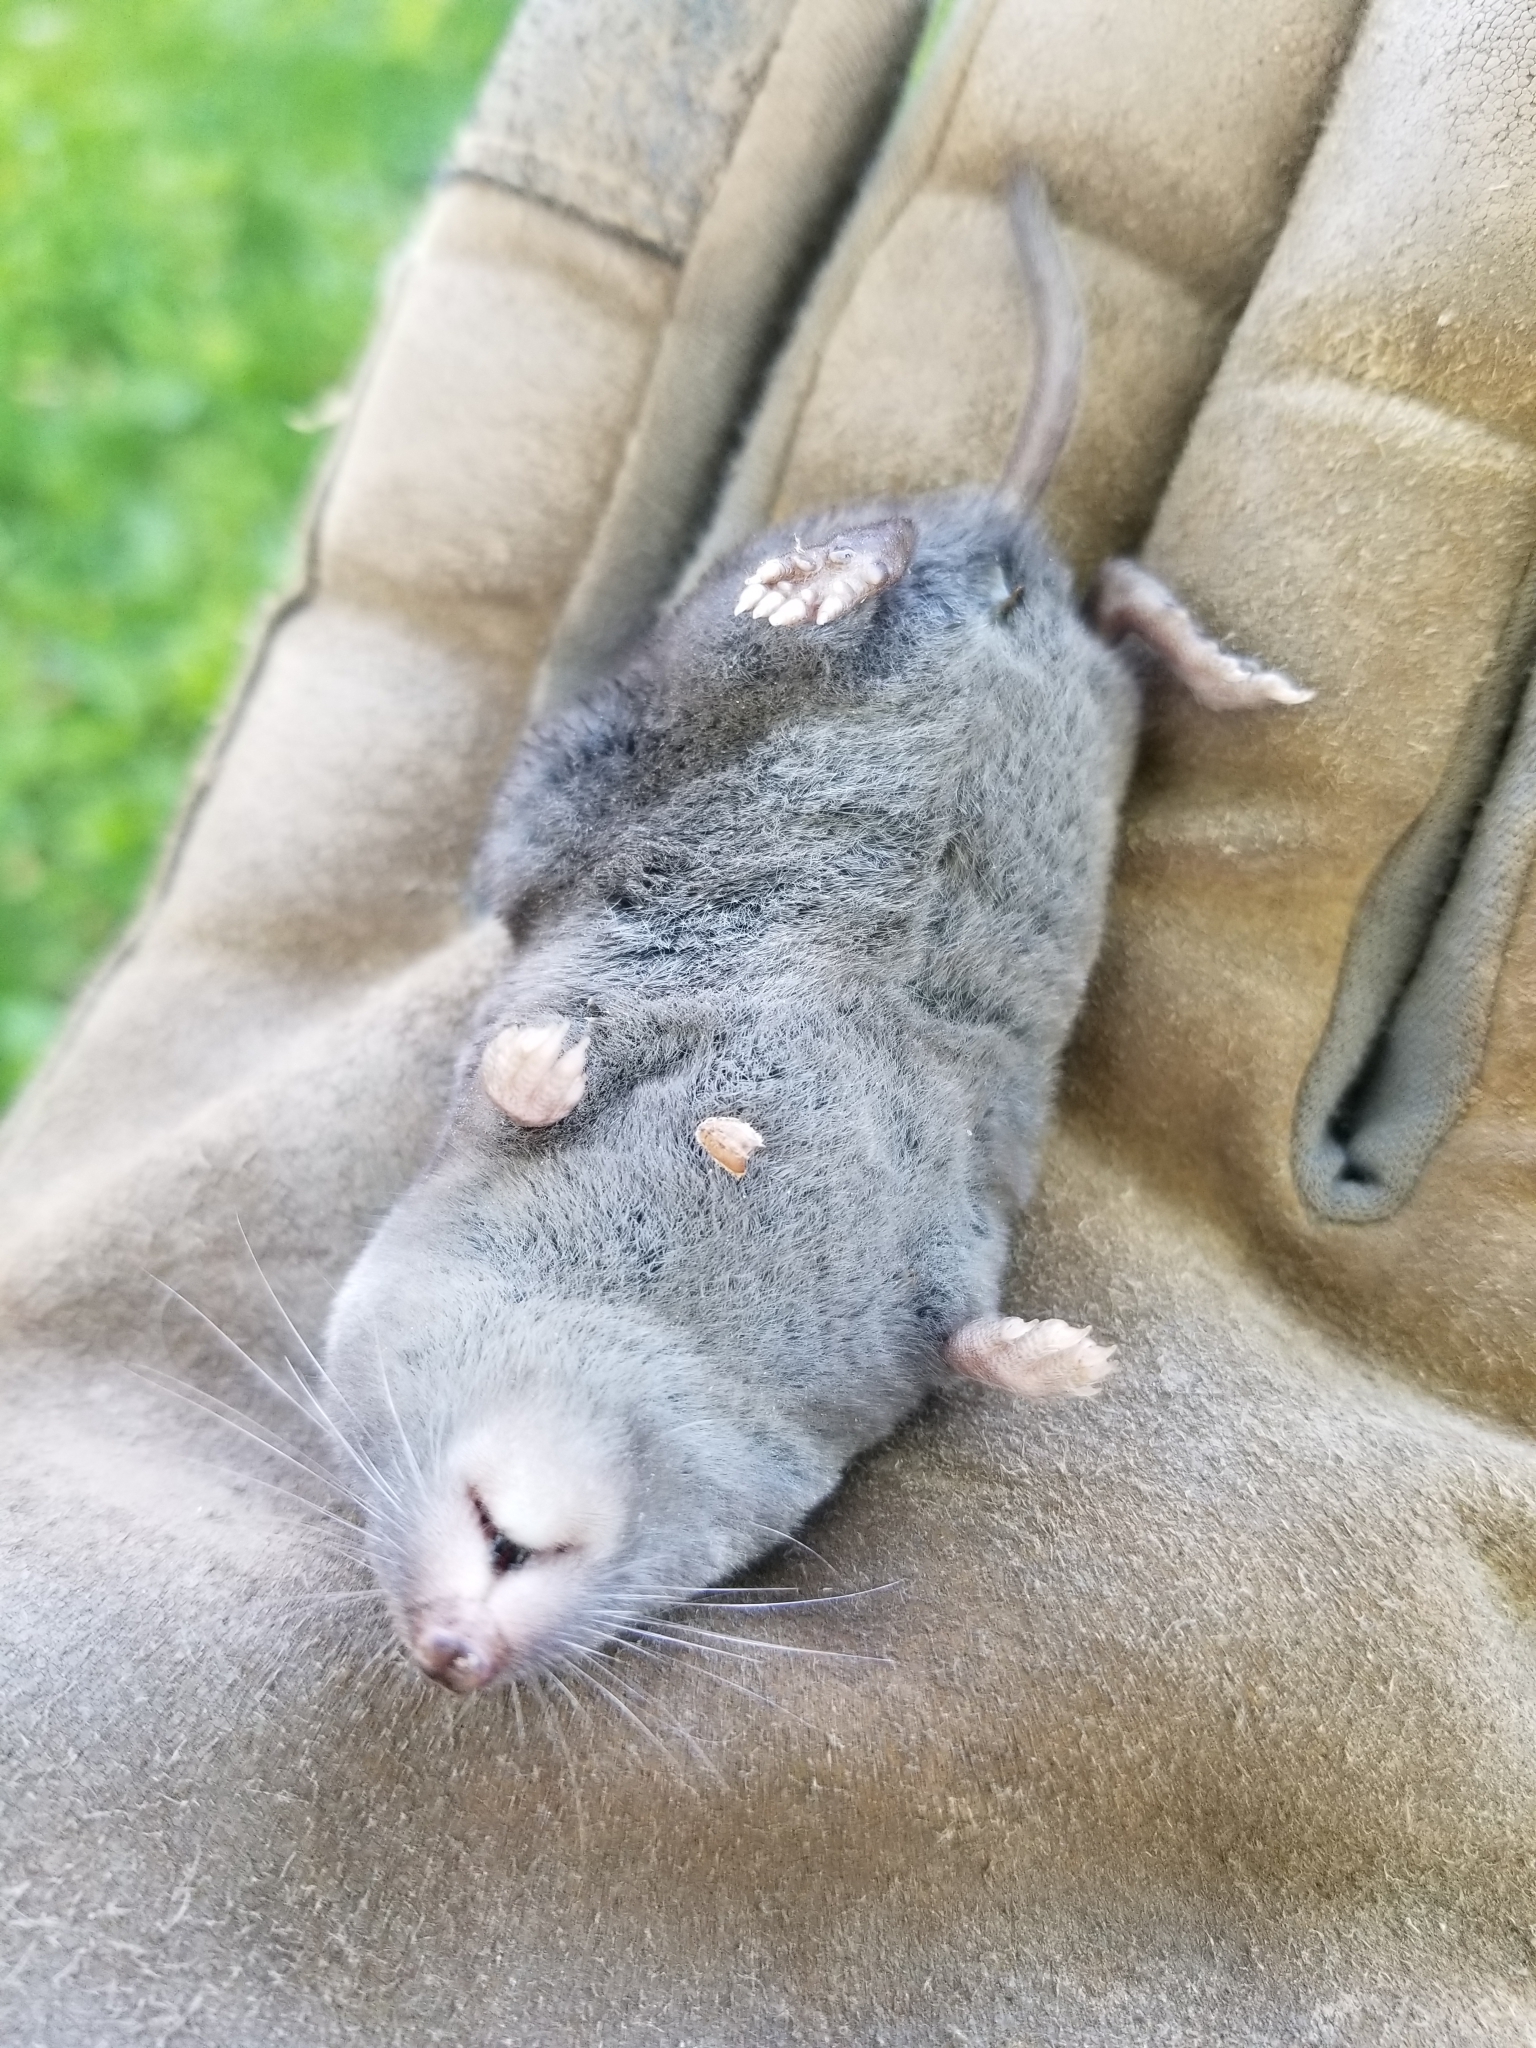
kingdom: Animalia
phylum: Chordata
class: Mammalia
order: Soricomorpha
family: Soricidae
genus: Blarina
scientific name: Blarina brevicauda
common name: Northern short-tailed shrew
